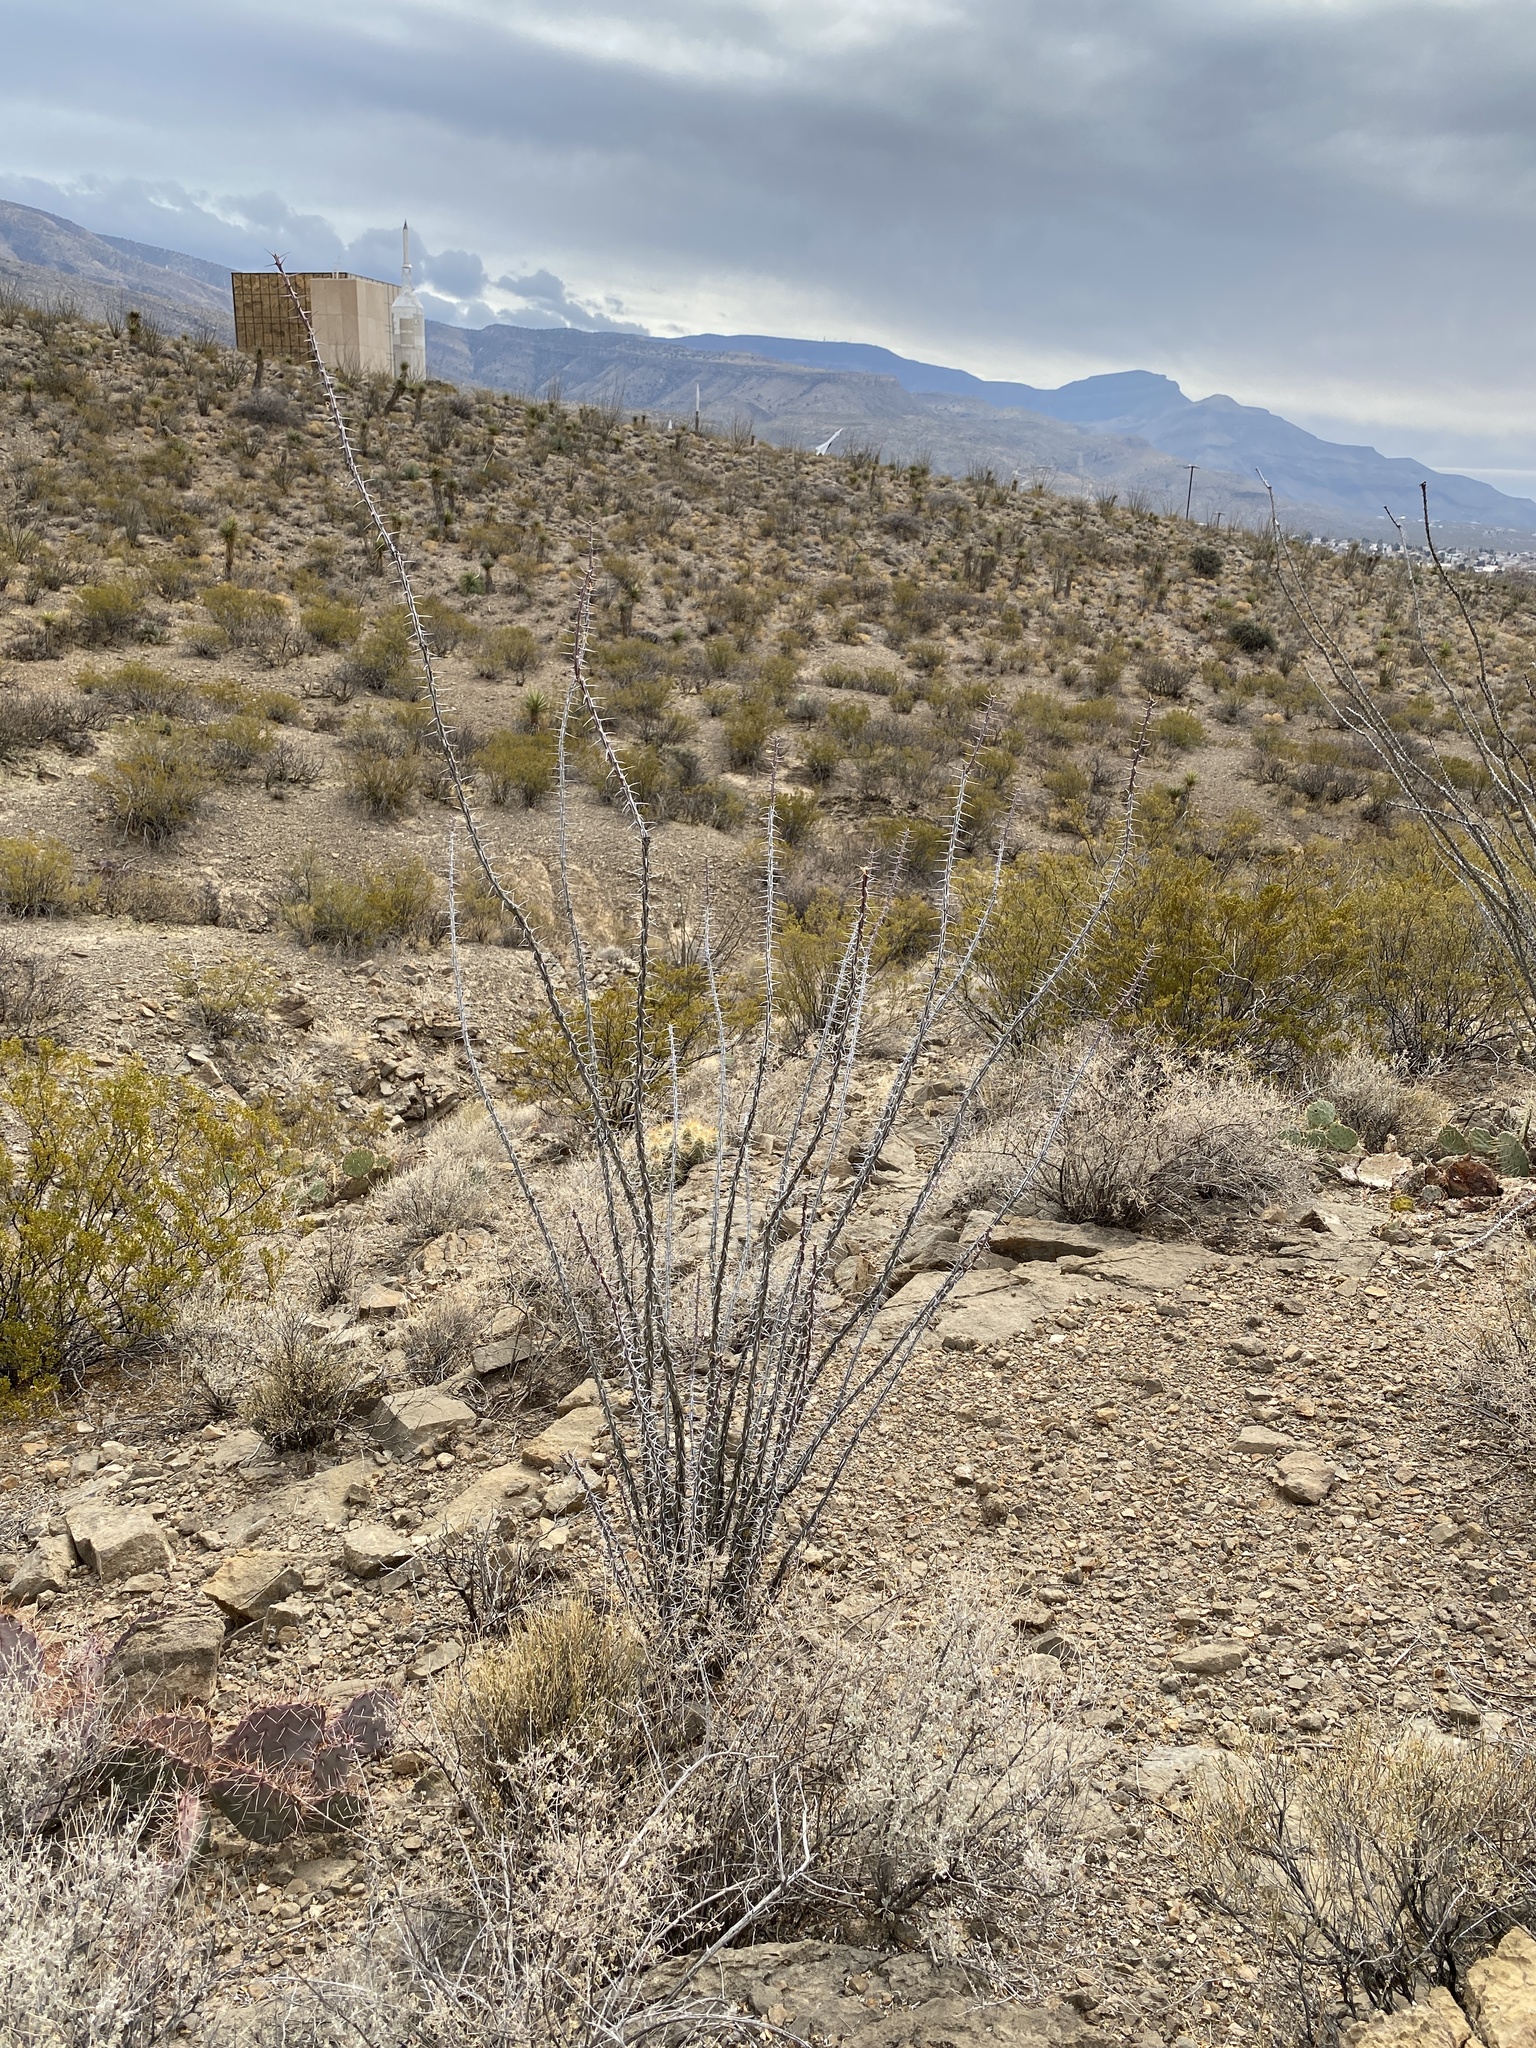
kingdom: Plantae
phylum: Tracheophyta
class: Magnoliopsida
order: Ericales
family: Fouquieriaceae
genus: Fouquieria
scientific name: Fouquieria splendens
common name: Vine-cactus
